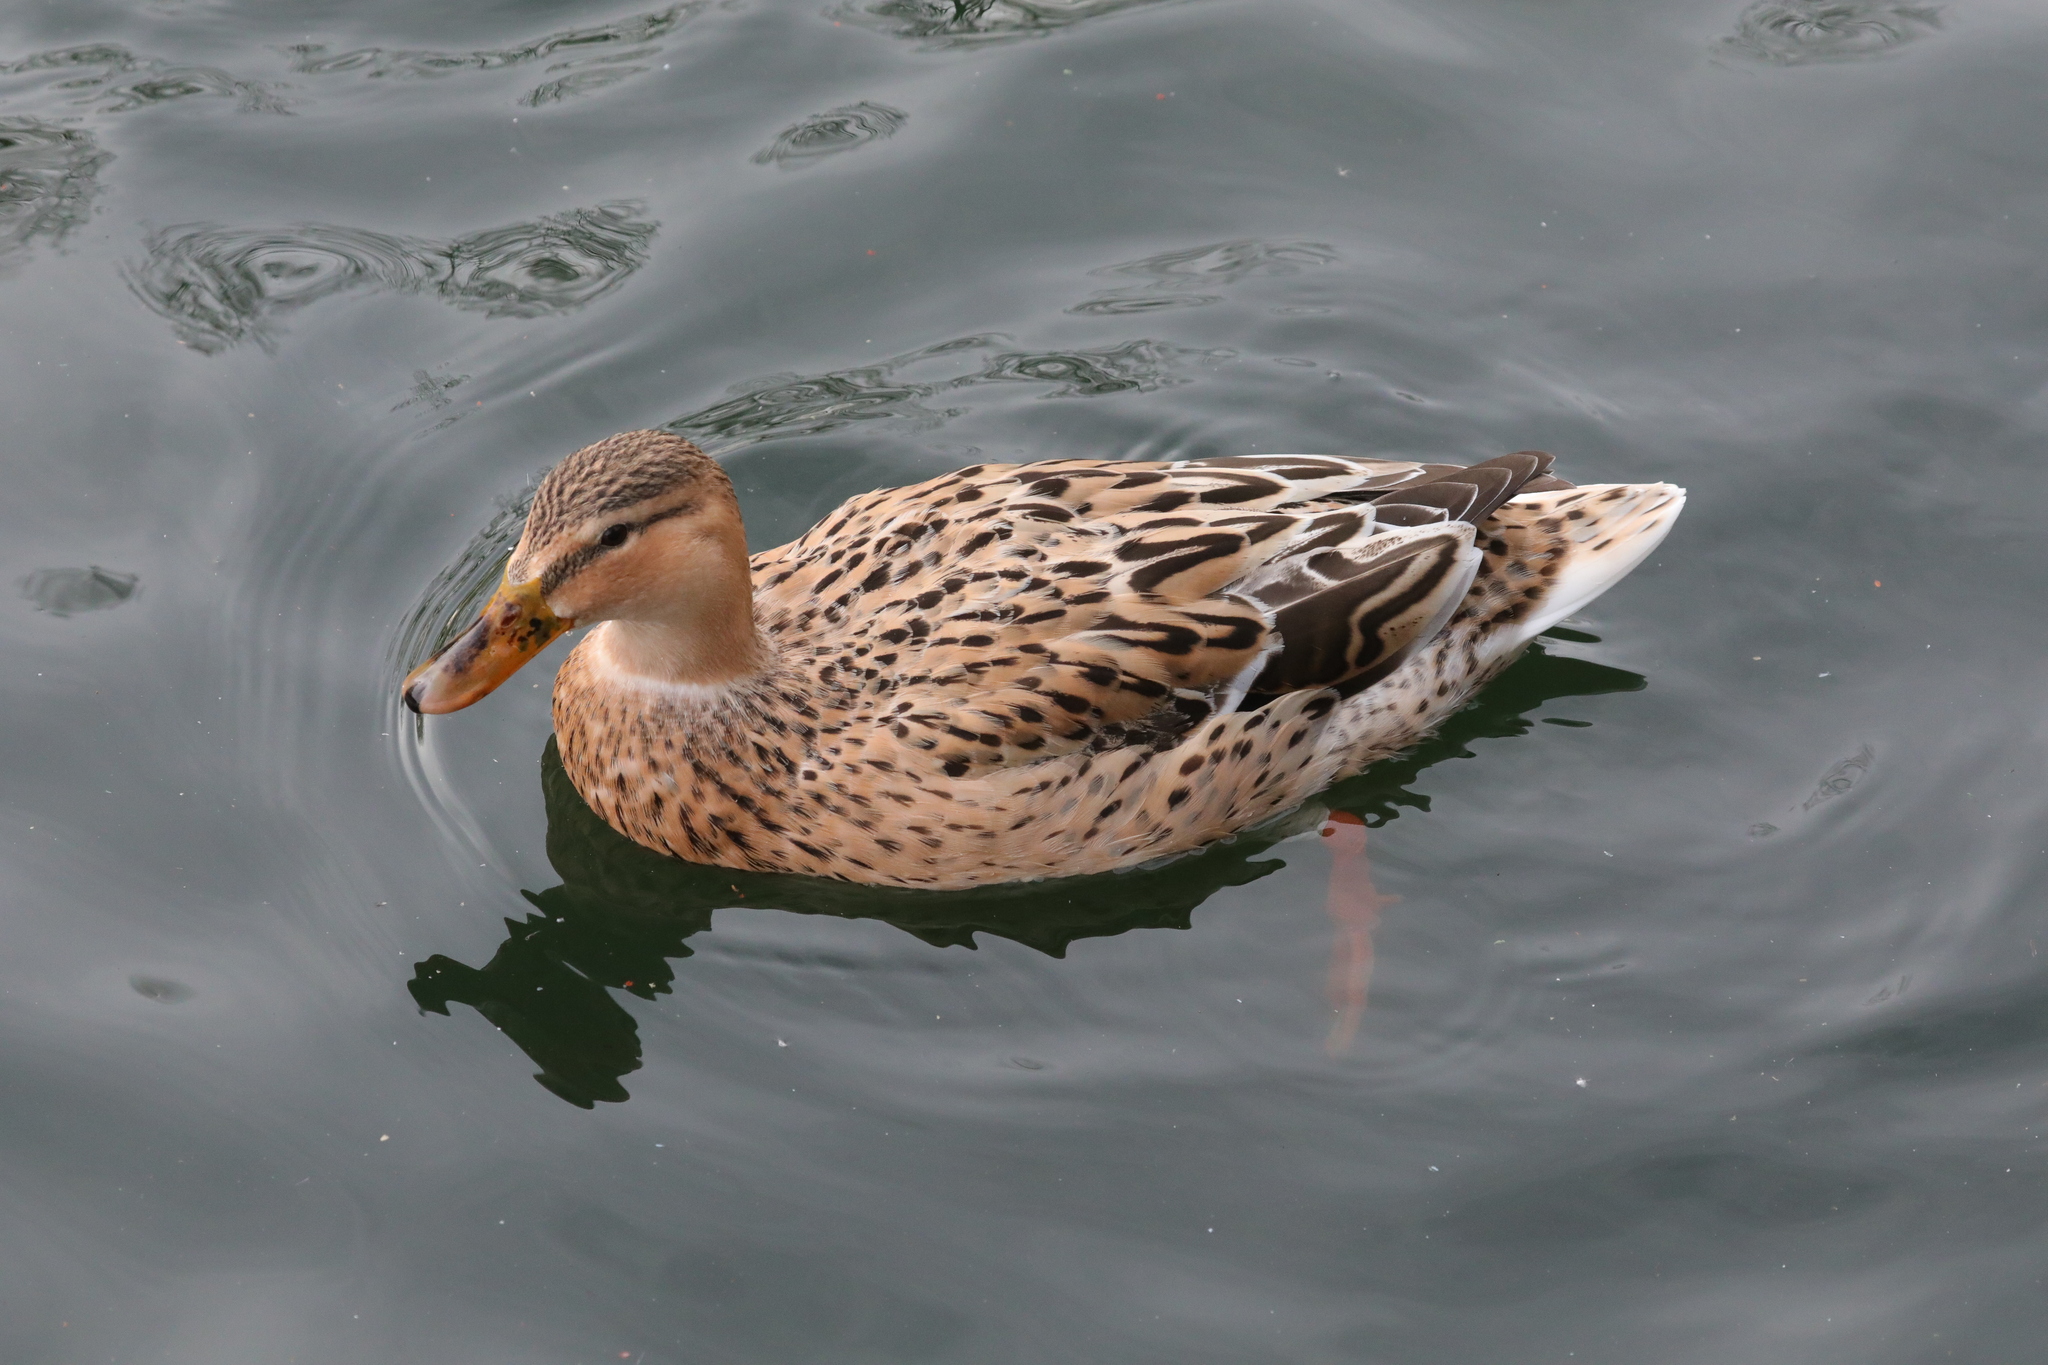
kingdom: Animalia
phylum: Chordata
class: Aves
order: Anseriformes
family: Anatidae
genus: Anas
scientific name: Anas platyrhynchos
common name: Mallard
